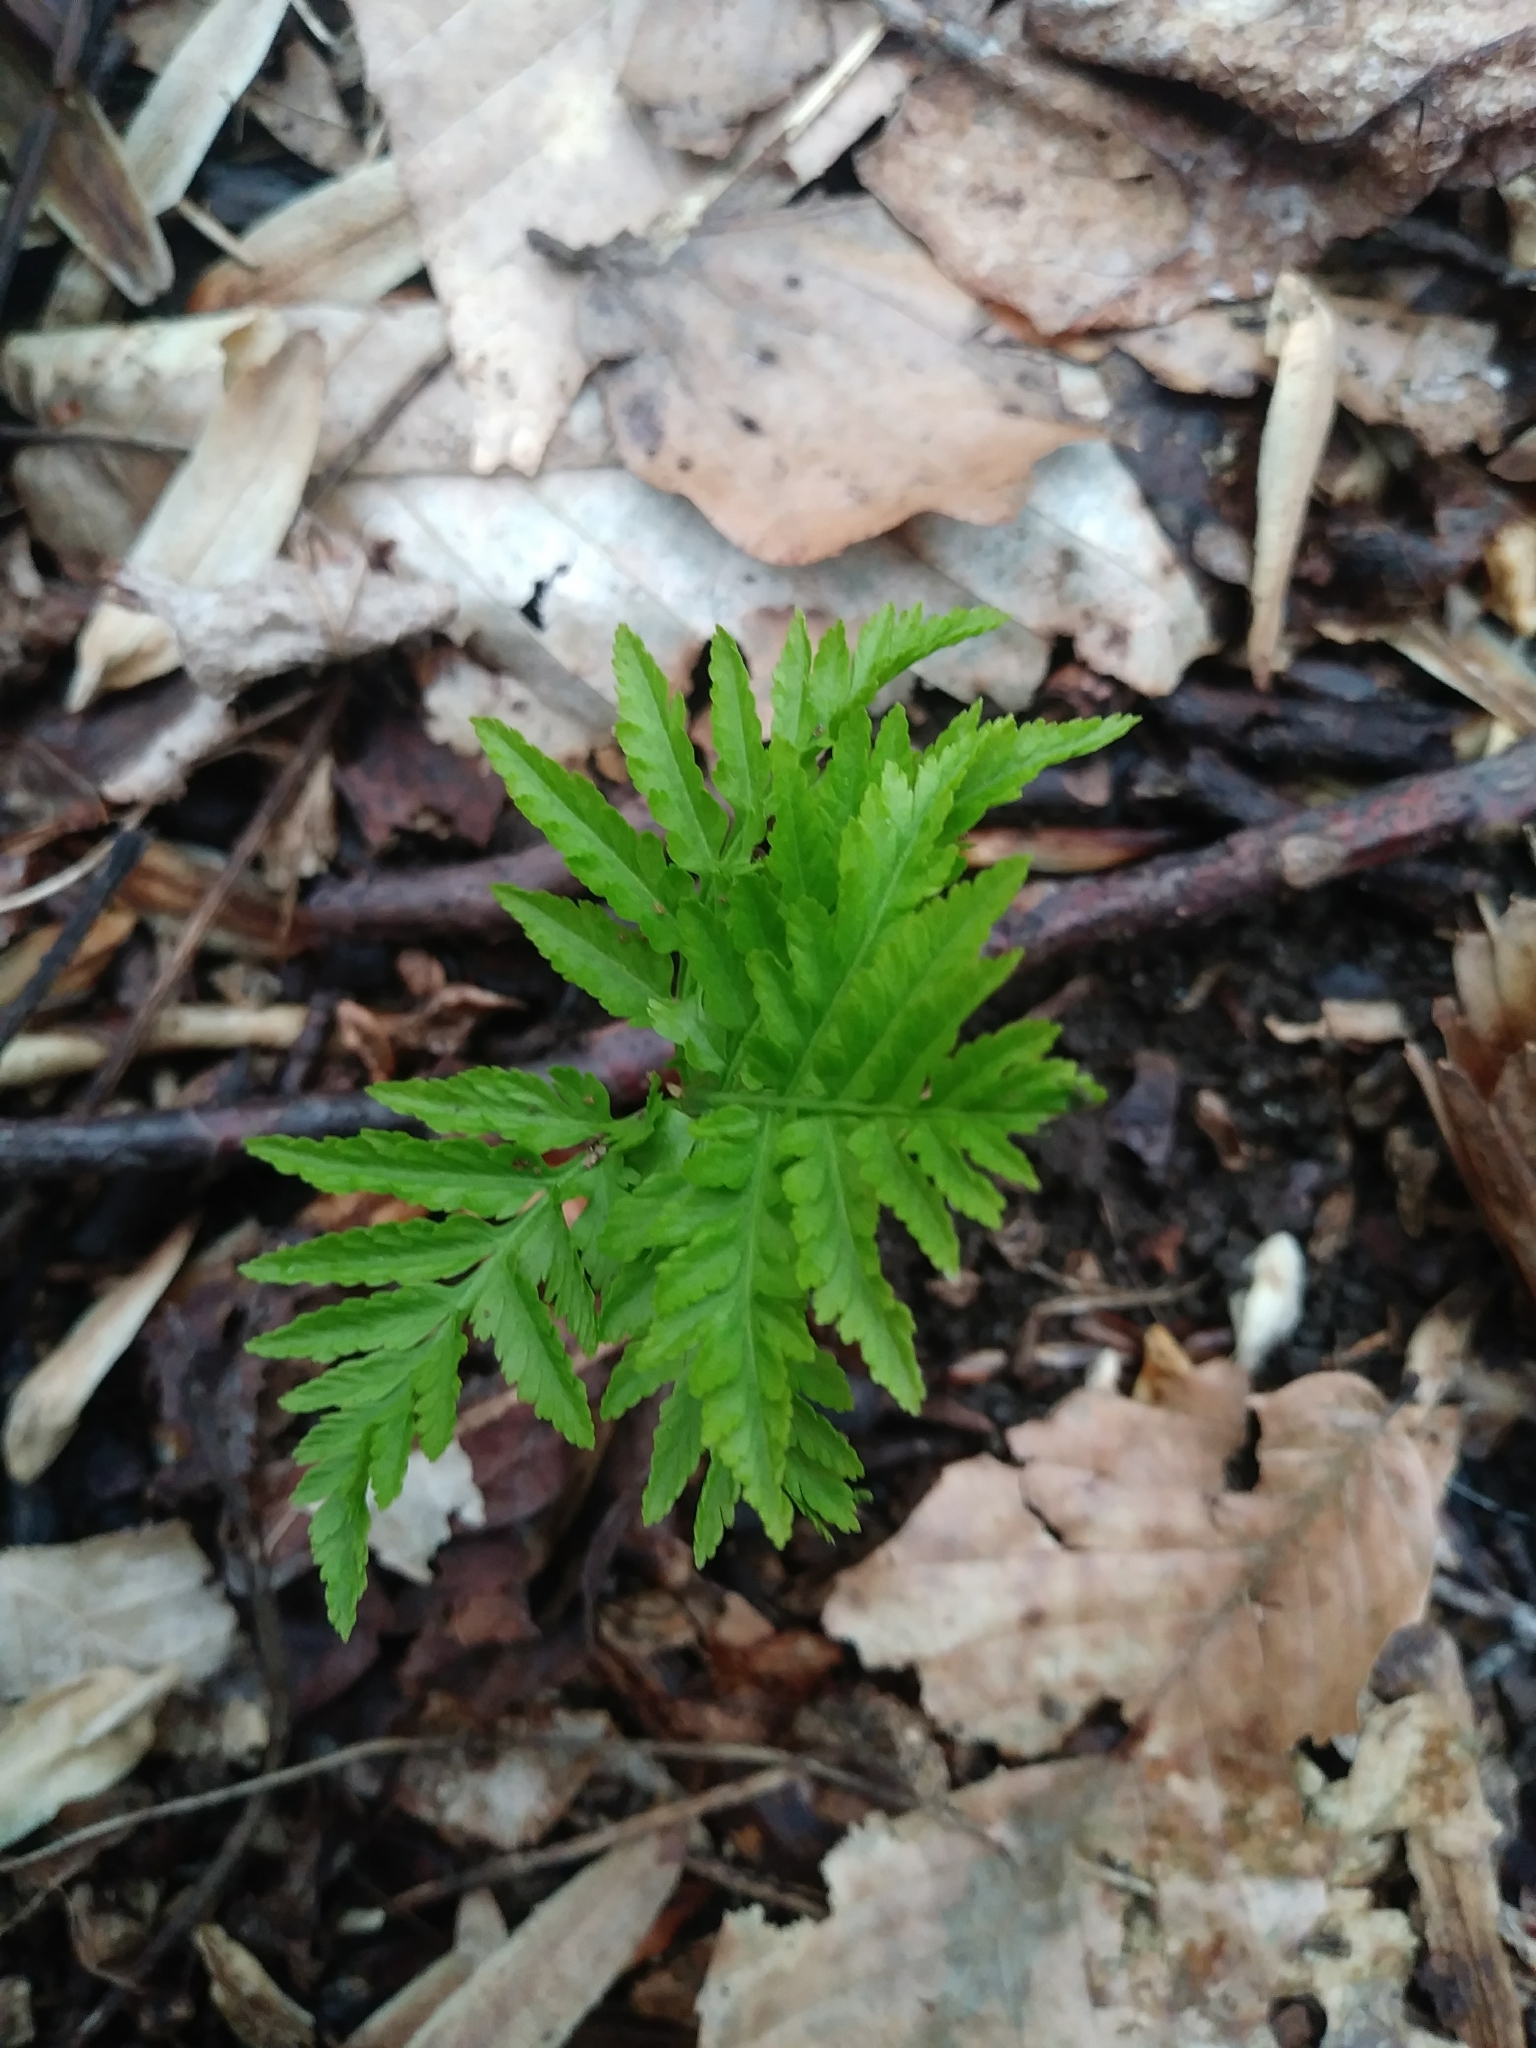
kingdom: Plantae
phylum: Tracheophyta
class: Polypodiopsida
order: Ophioglossales
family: Ophioglossaceae
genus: Botrypus
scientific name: Botrypus virginianus
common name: Common grapefern
